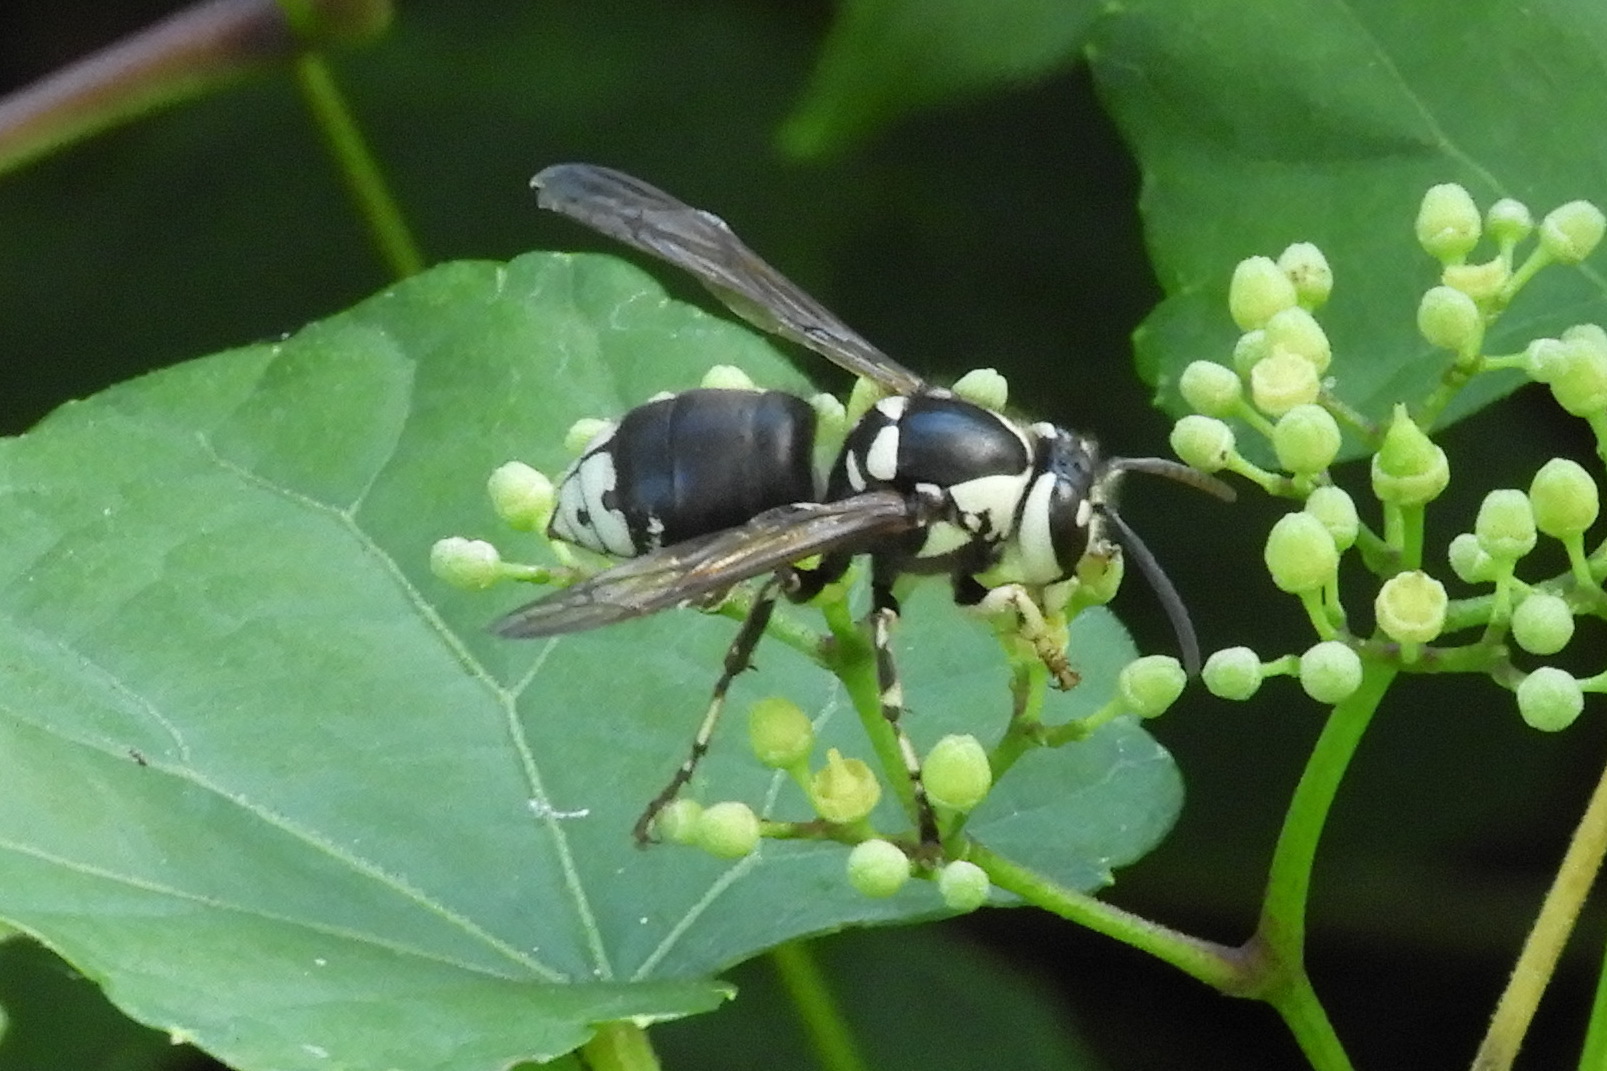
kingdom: Animalia
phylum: Arthropoda
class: Insecta
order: Hymenoptera
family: Vespidae
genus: Dolichovespula
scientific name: Dolichovespula maculata
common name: Bald-faced hornet
